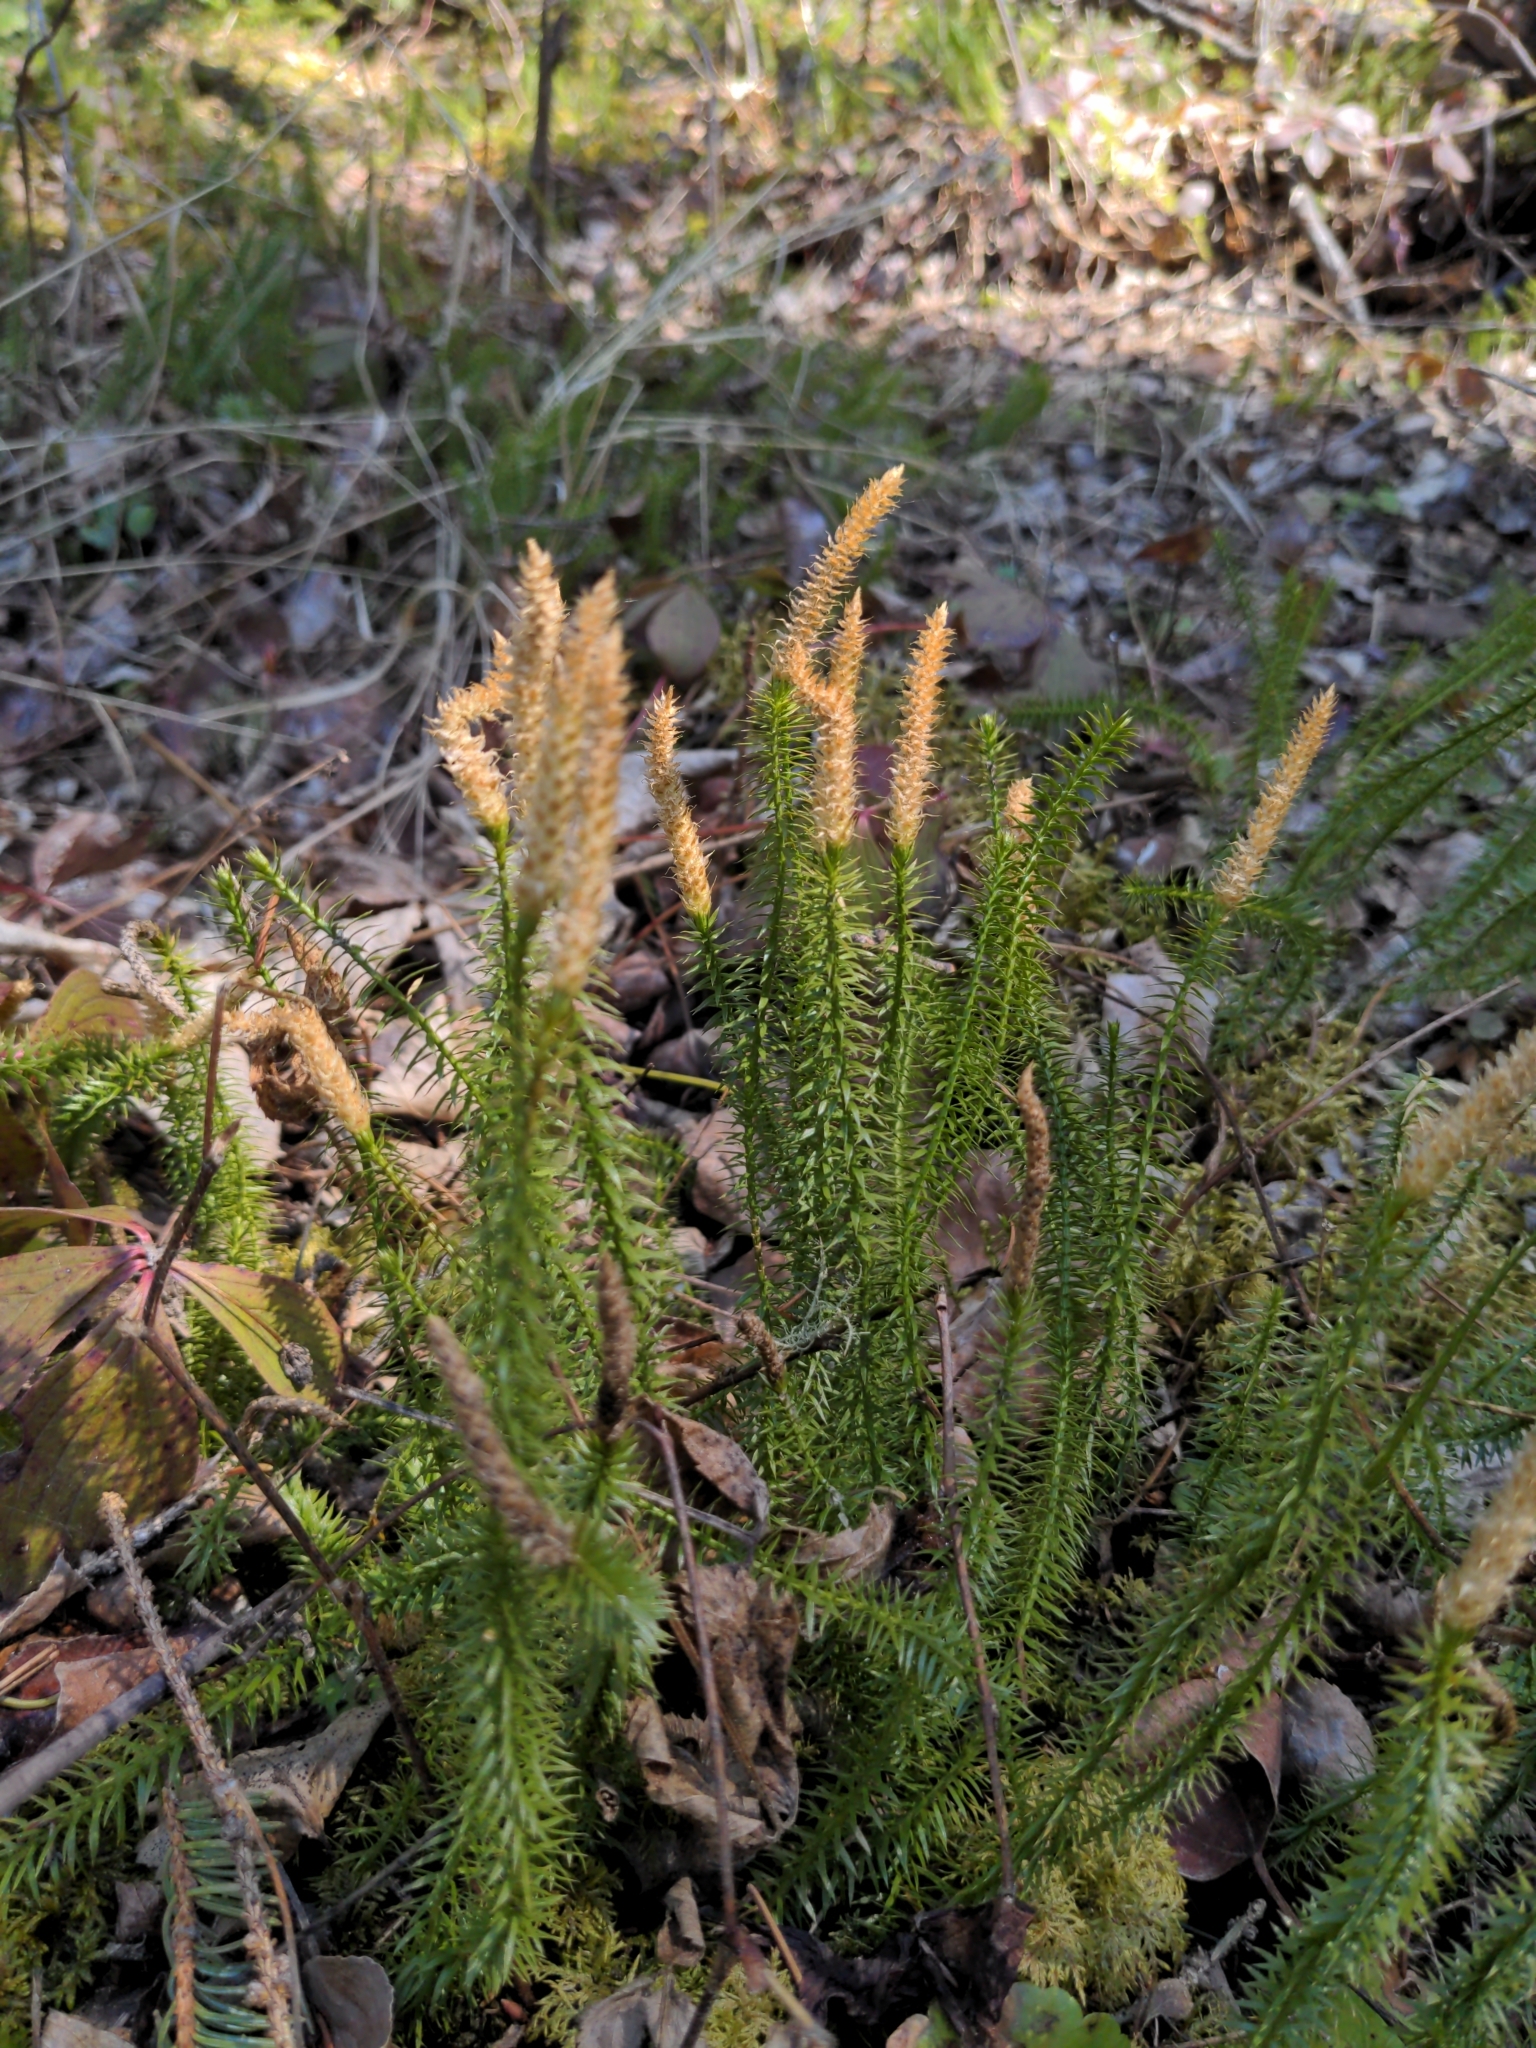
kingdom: Plantae
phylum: Tracheophyta
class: Lycopodiopsida
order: Lycopodiales
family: Lycopodiaceae
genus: Spinulum
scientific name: Spinulum annotinum
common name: Interrupted club-moss
